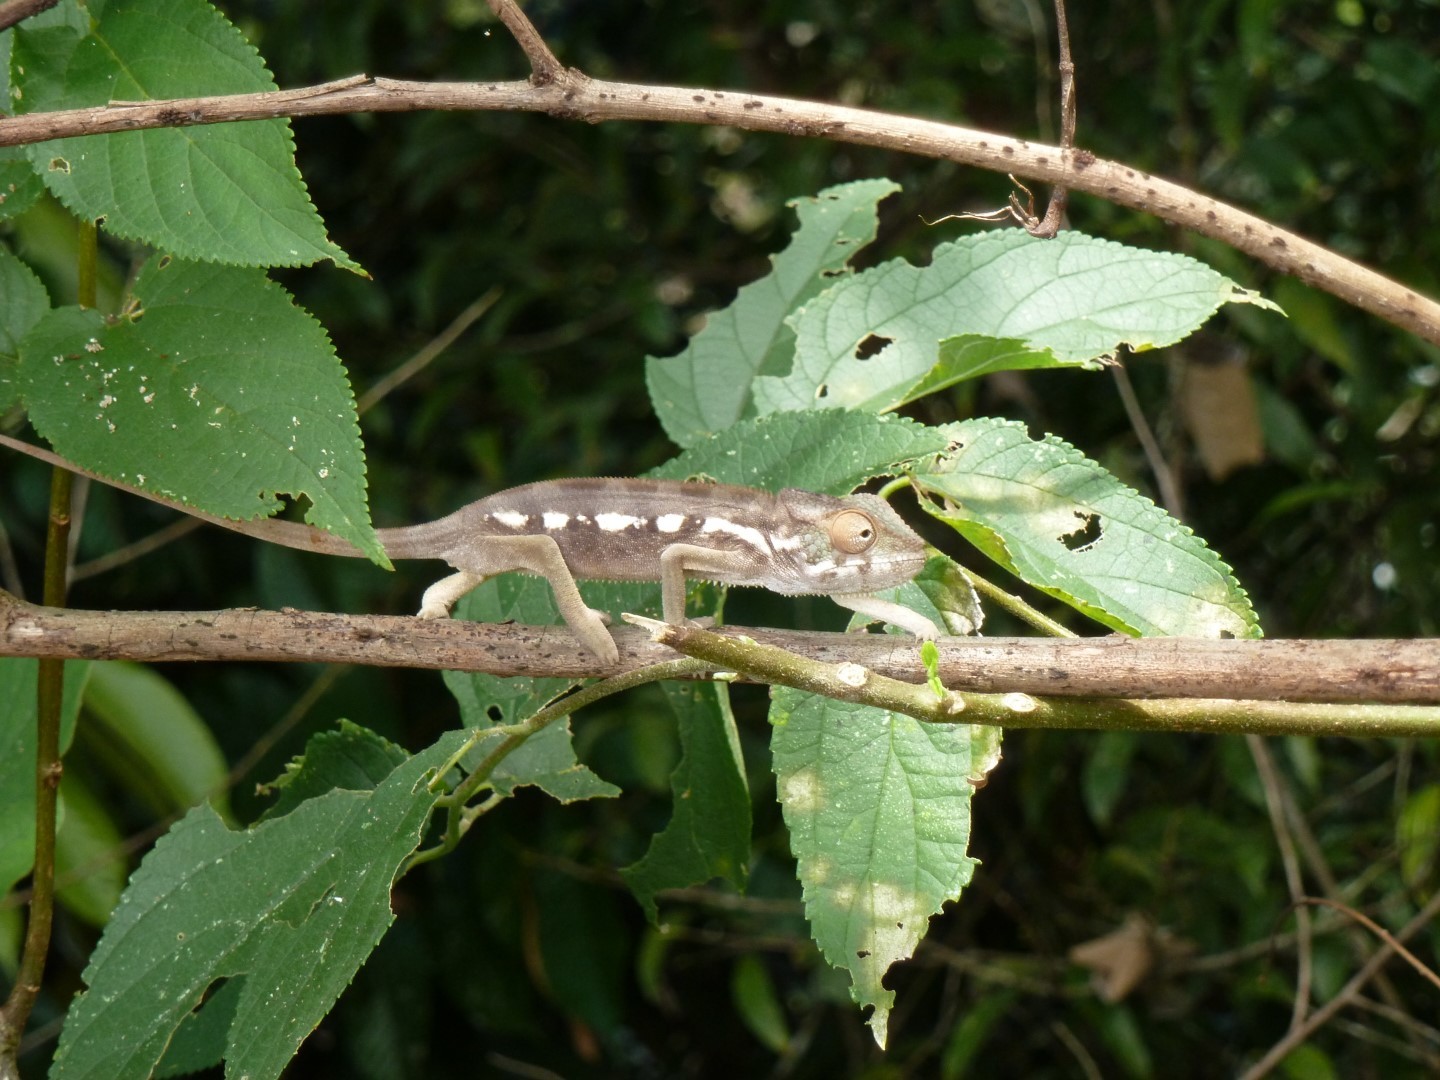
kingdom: Animalia
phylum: Chordata
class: Squamata
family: Chamaeleonidae
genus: Furcifer
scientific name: Furcifer pardalis
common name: Panther chameleon
